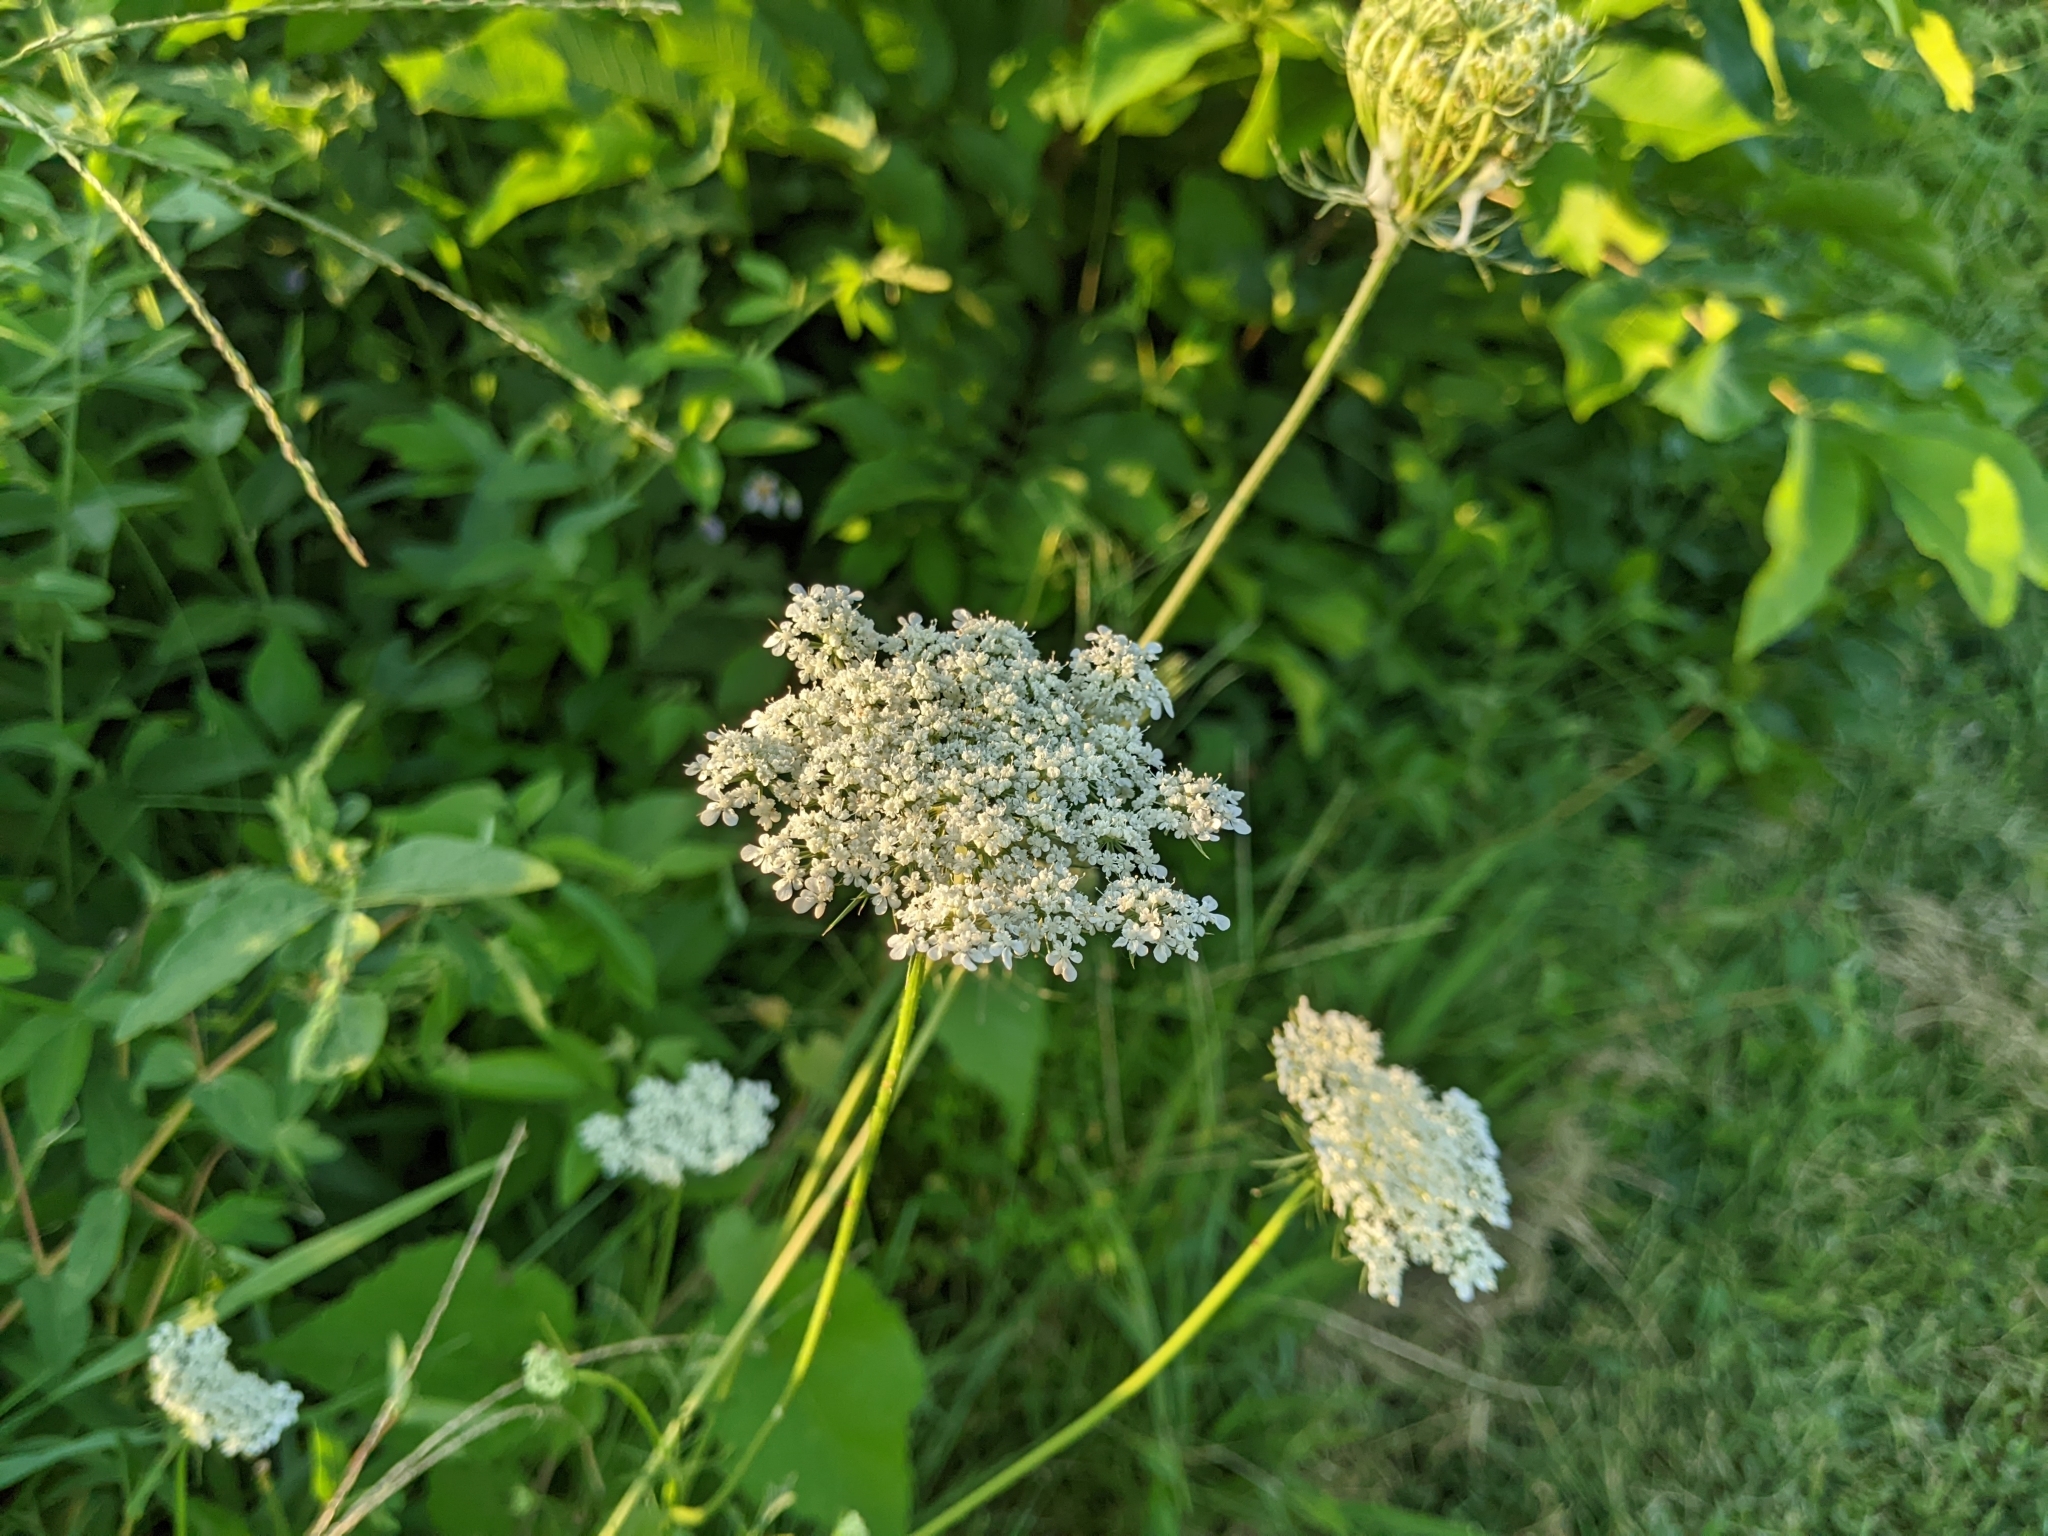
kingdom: Plantae
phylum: Tracheophyta
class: Magnoliopsida
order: Apiales
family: Apiaceae
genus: Daucus
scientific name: Daucus carota
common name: Wild carrot
